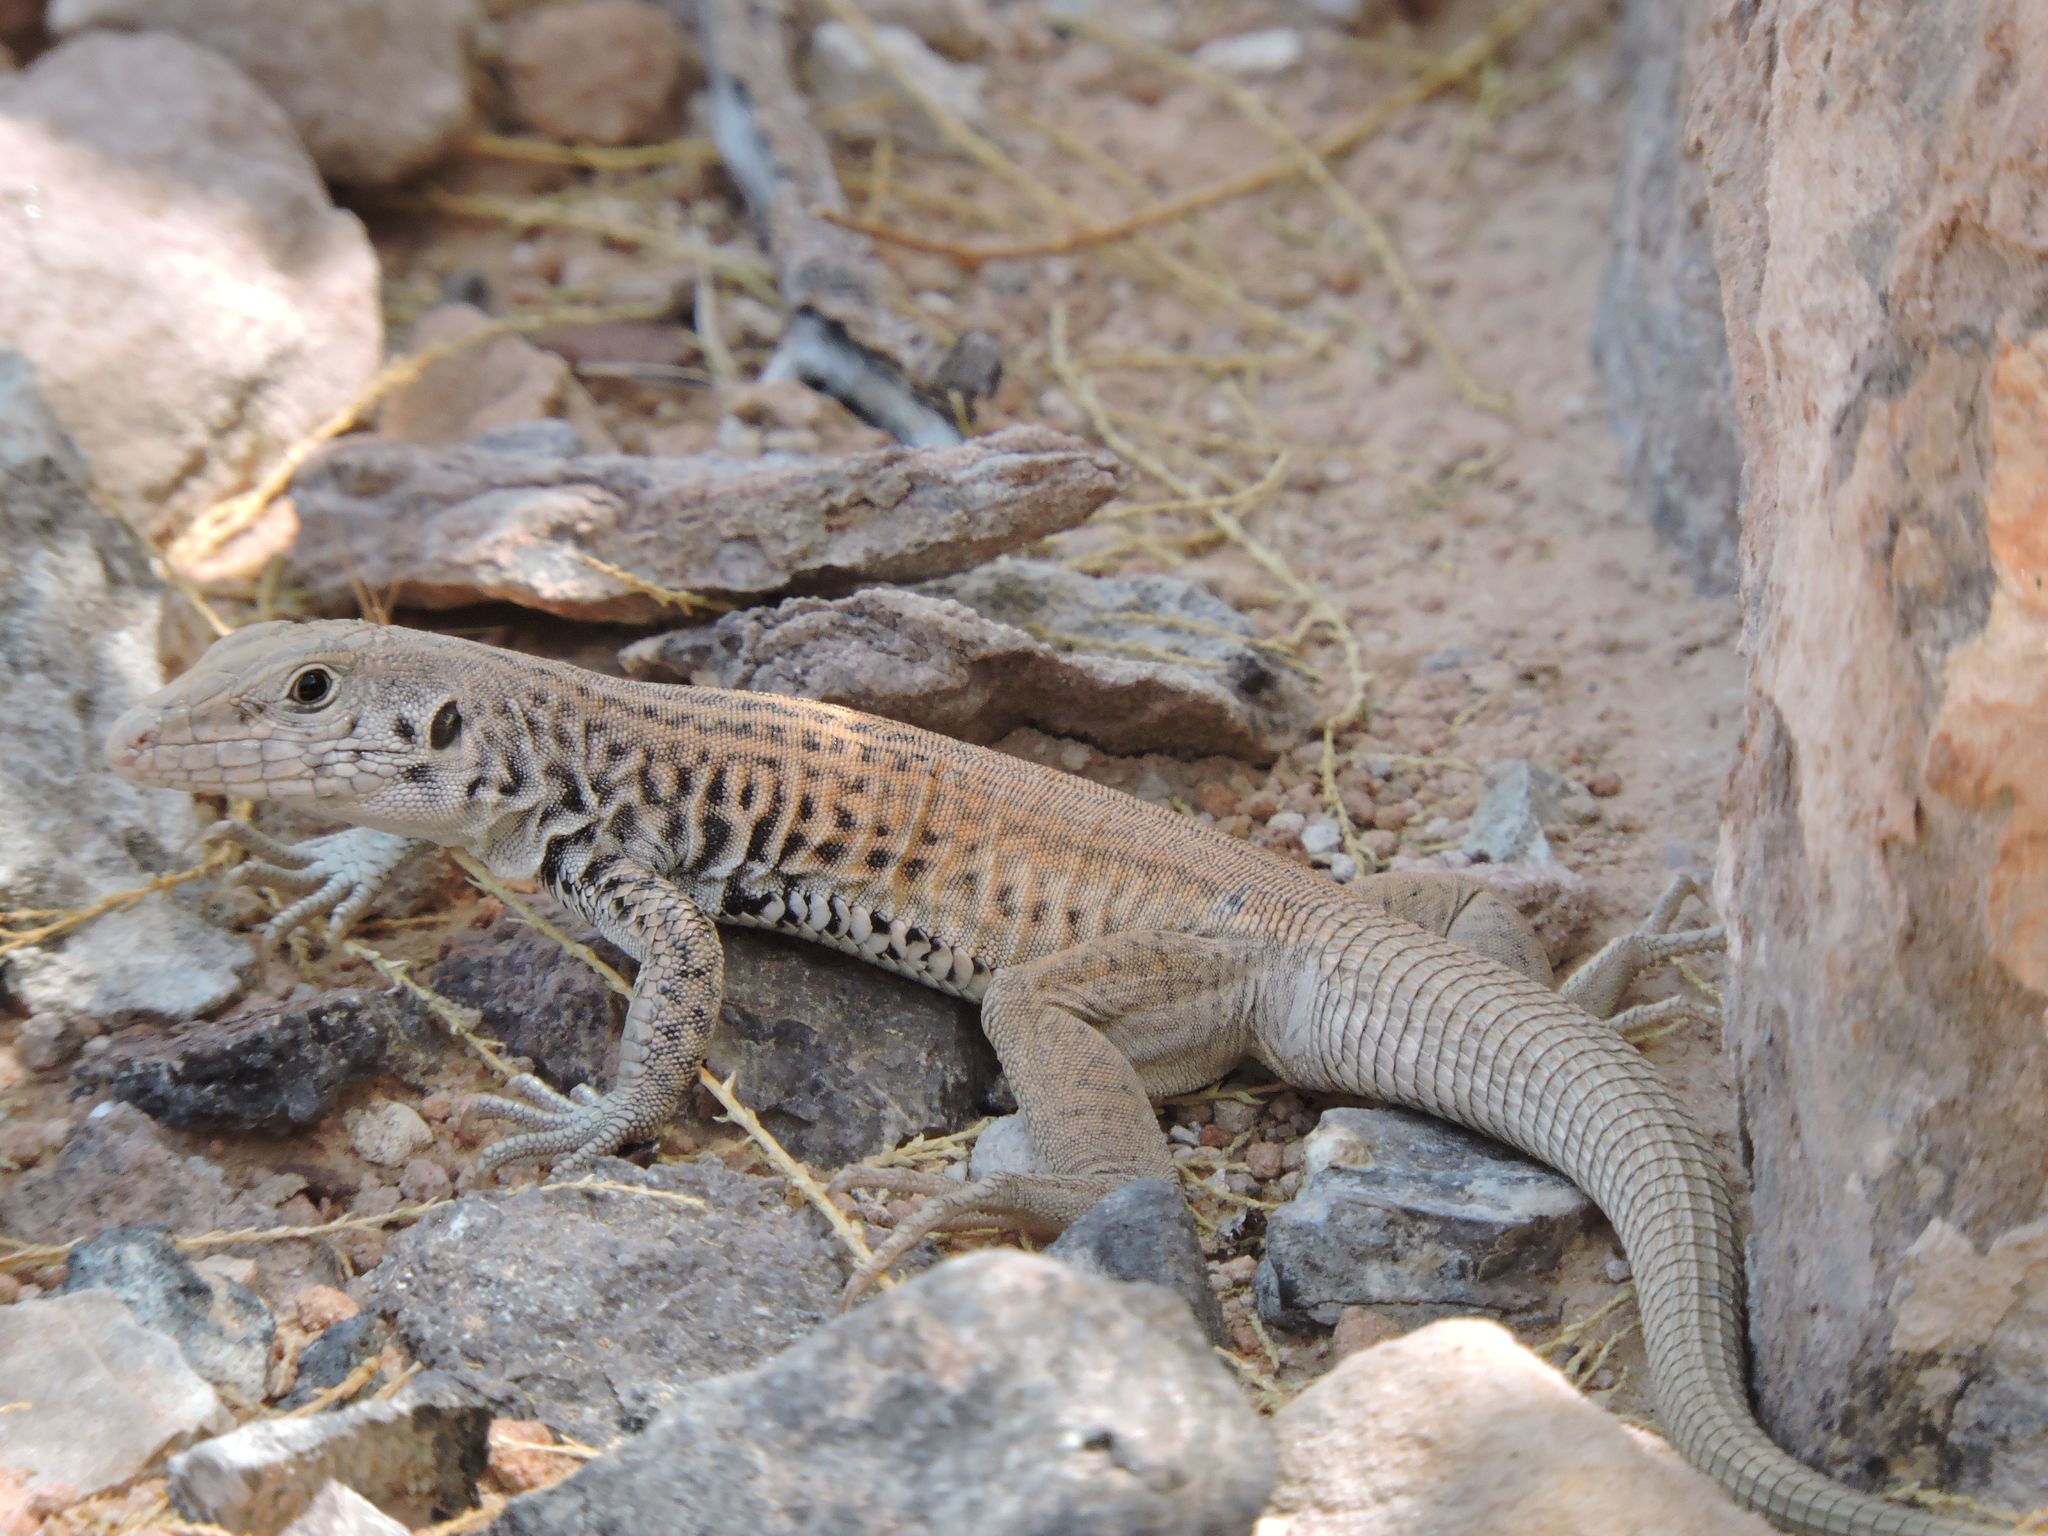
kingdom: Animalia
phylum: Chordata
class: Squamata
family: Teiidae
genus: Aspidoscelis
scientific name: Aspidoscelis tigris
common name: Tiger whiptail
